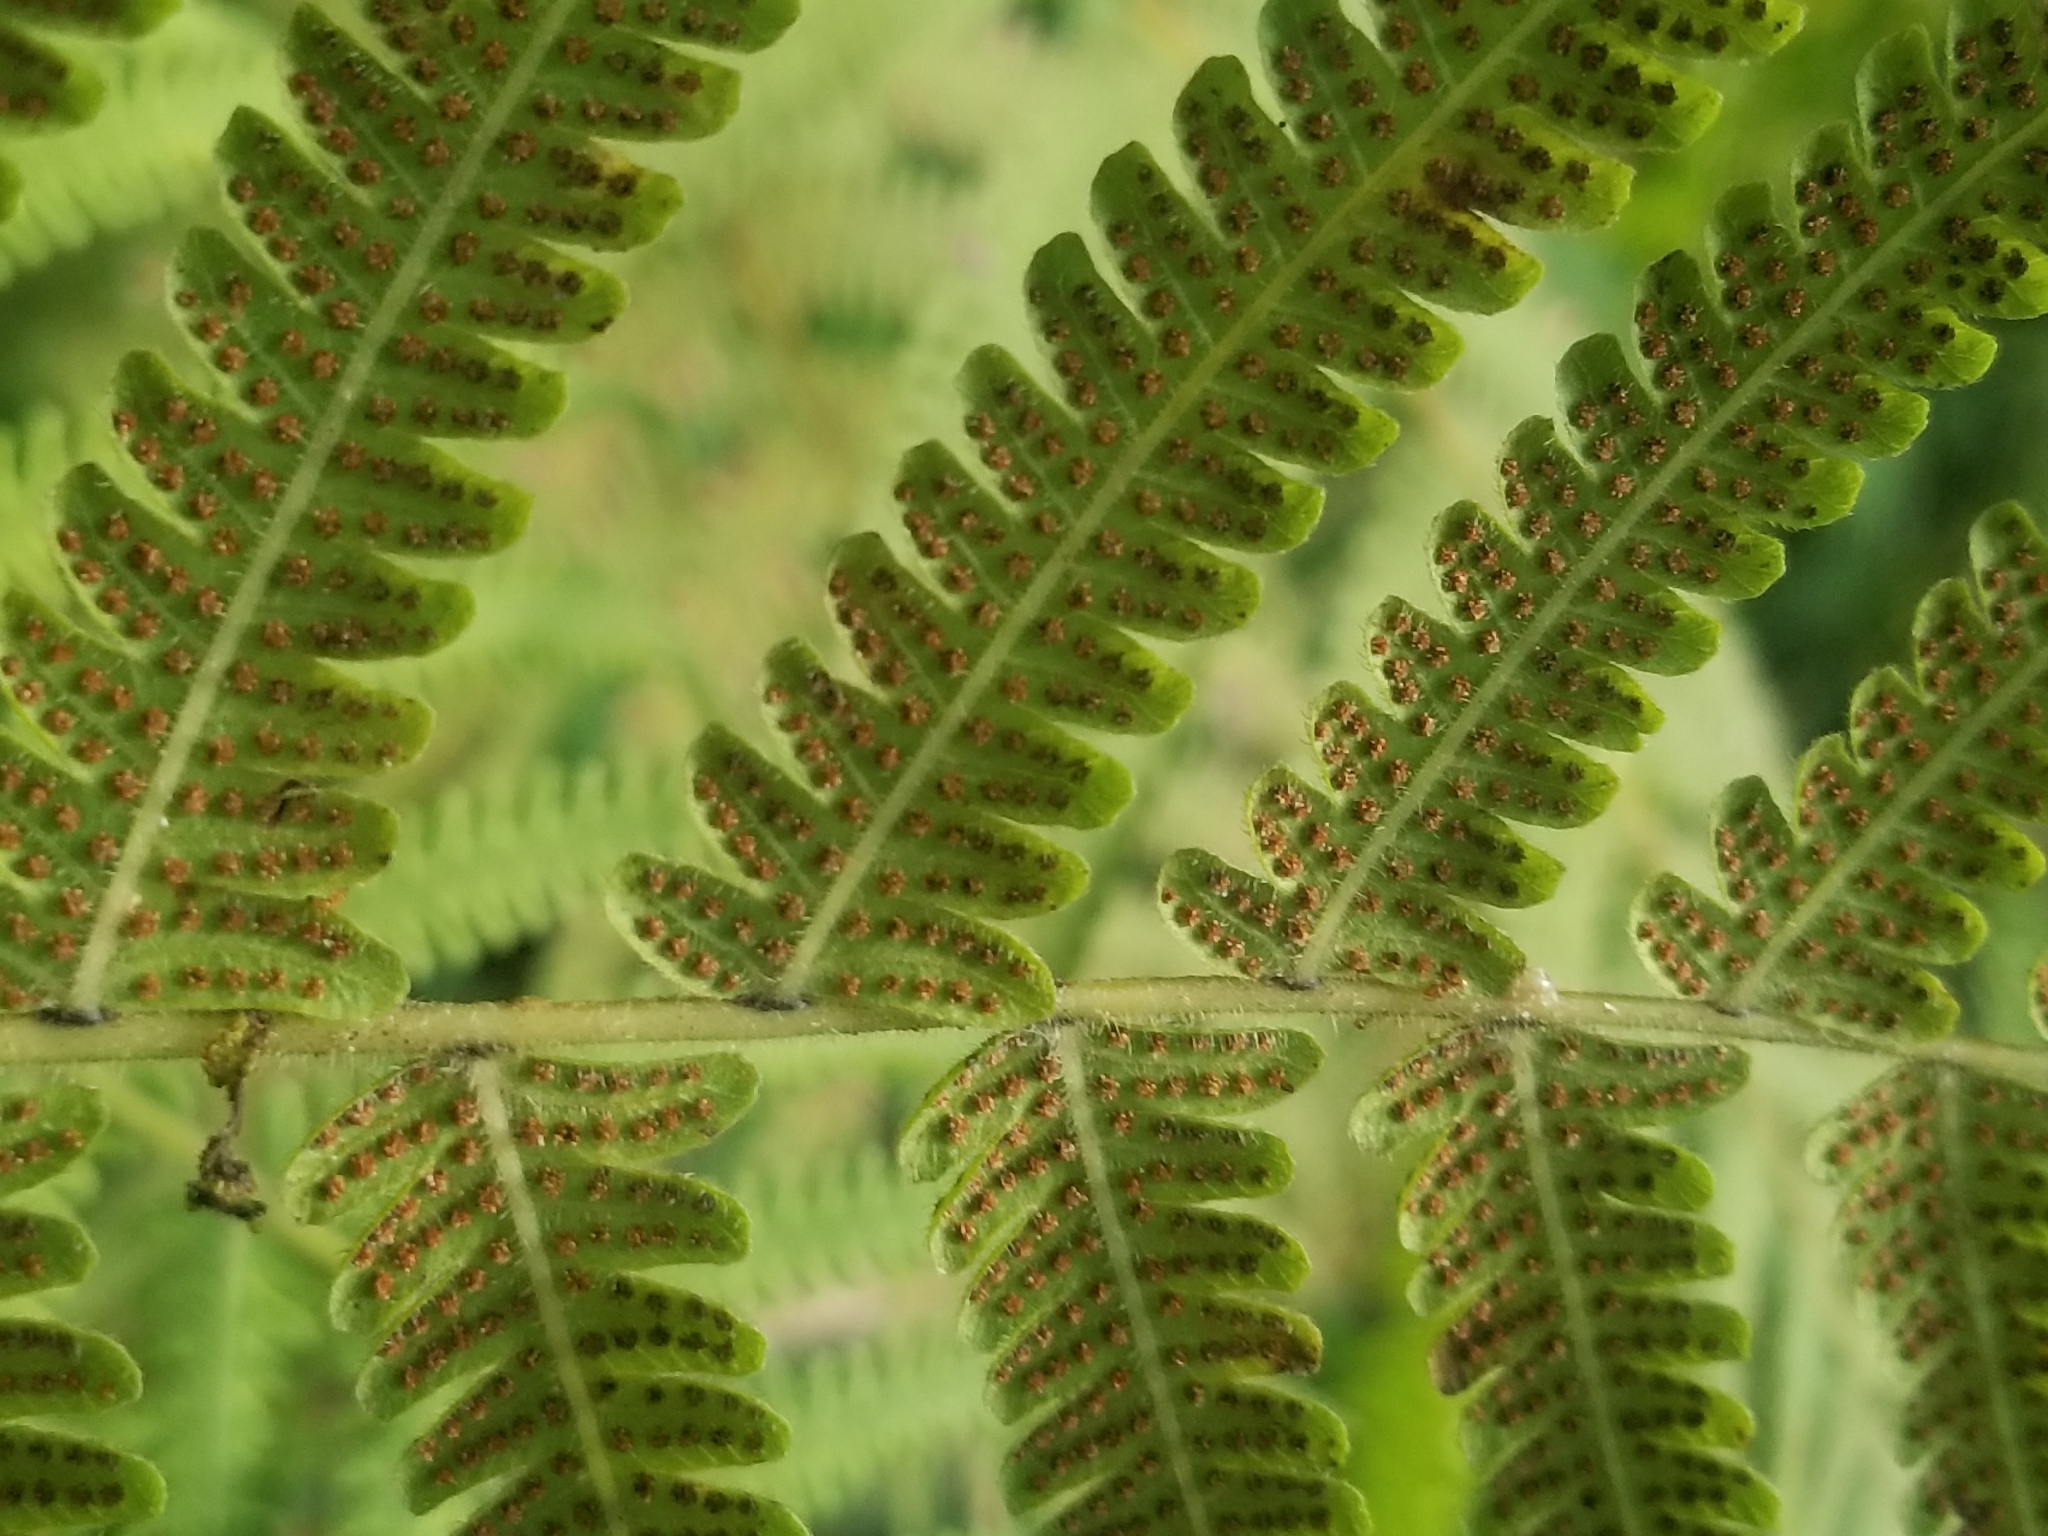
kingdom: Plantae
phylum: Tracheophyta
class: Polypodiopsida
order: Polypodiales
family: Thelypteridaceae
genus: Christella
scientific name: Christella parasitica
